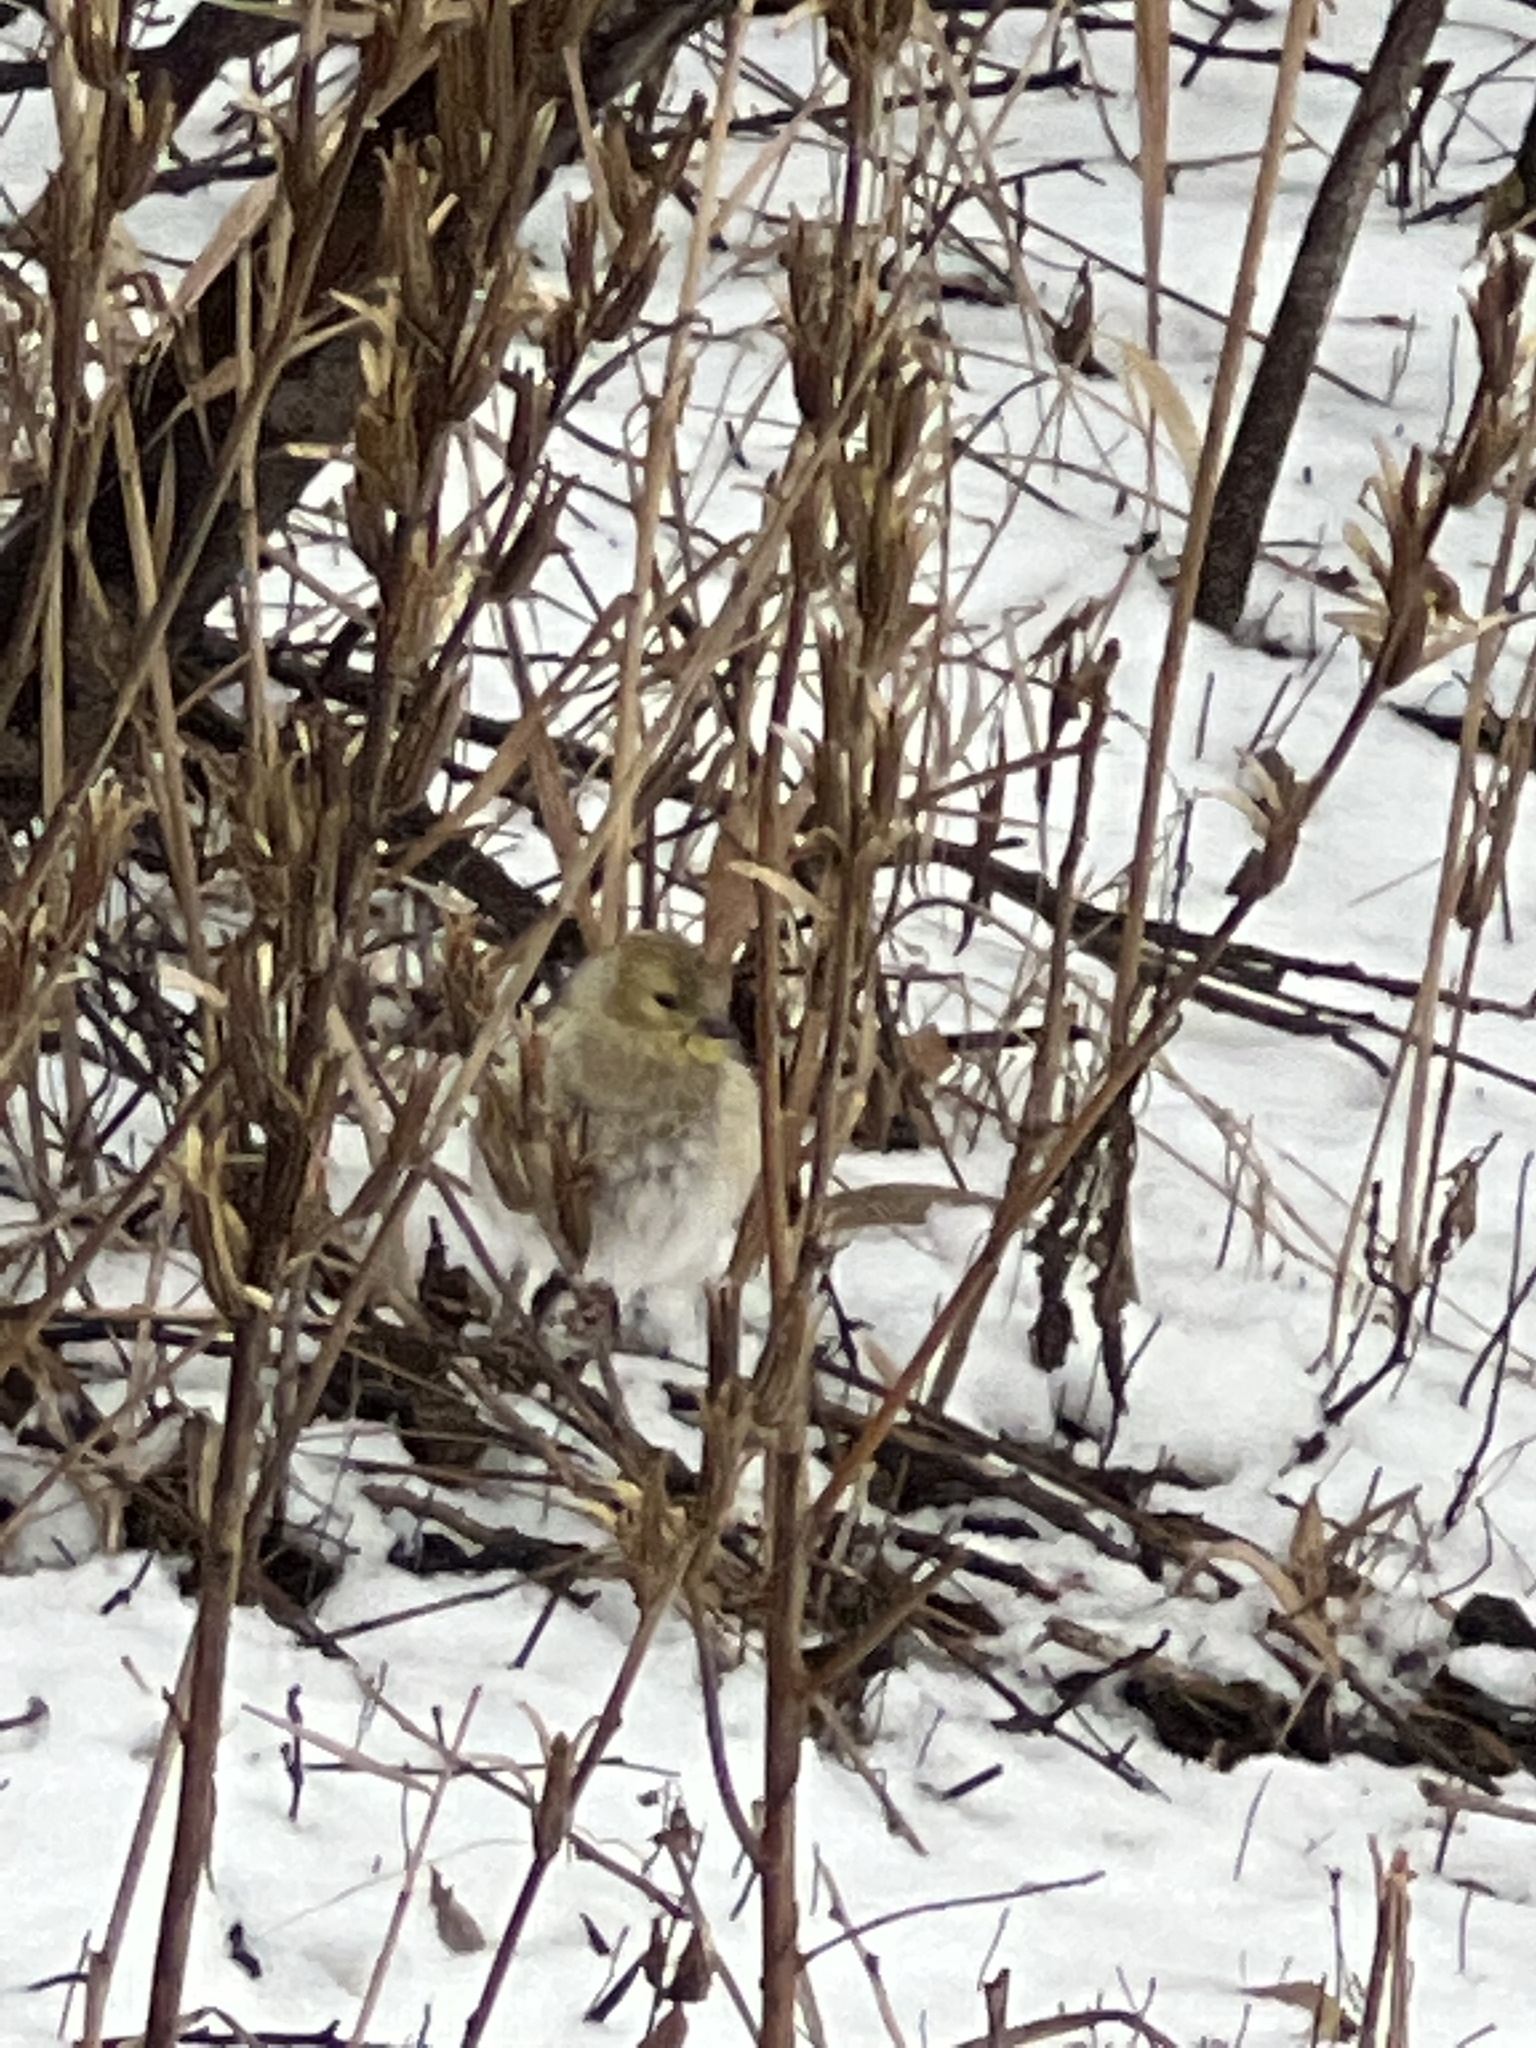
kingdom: Animalia
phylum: Chordata
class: Aves
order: Passeriformes
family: Fringillidae
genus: Spinus
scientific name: Spinus tristis
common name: American goldfinch
